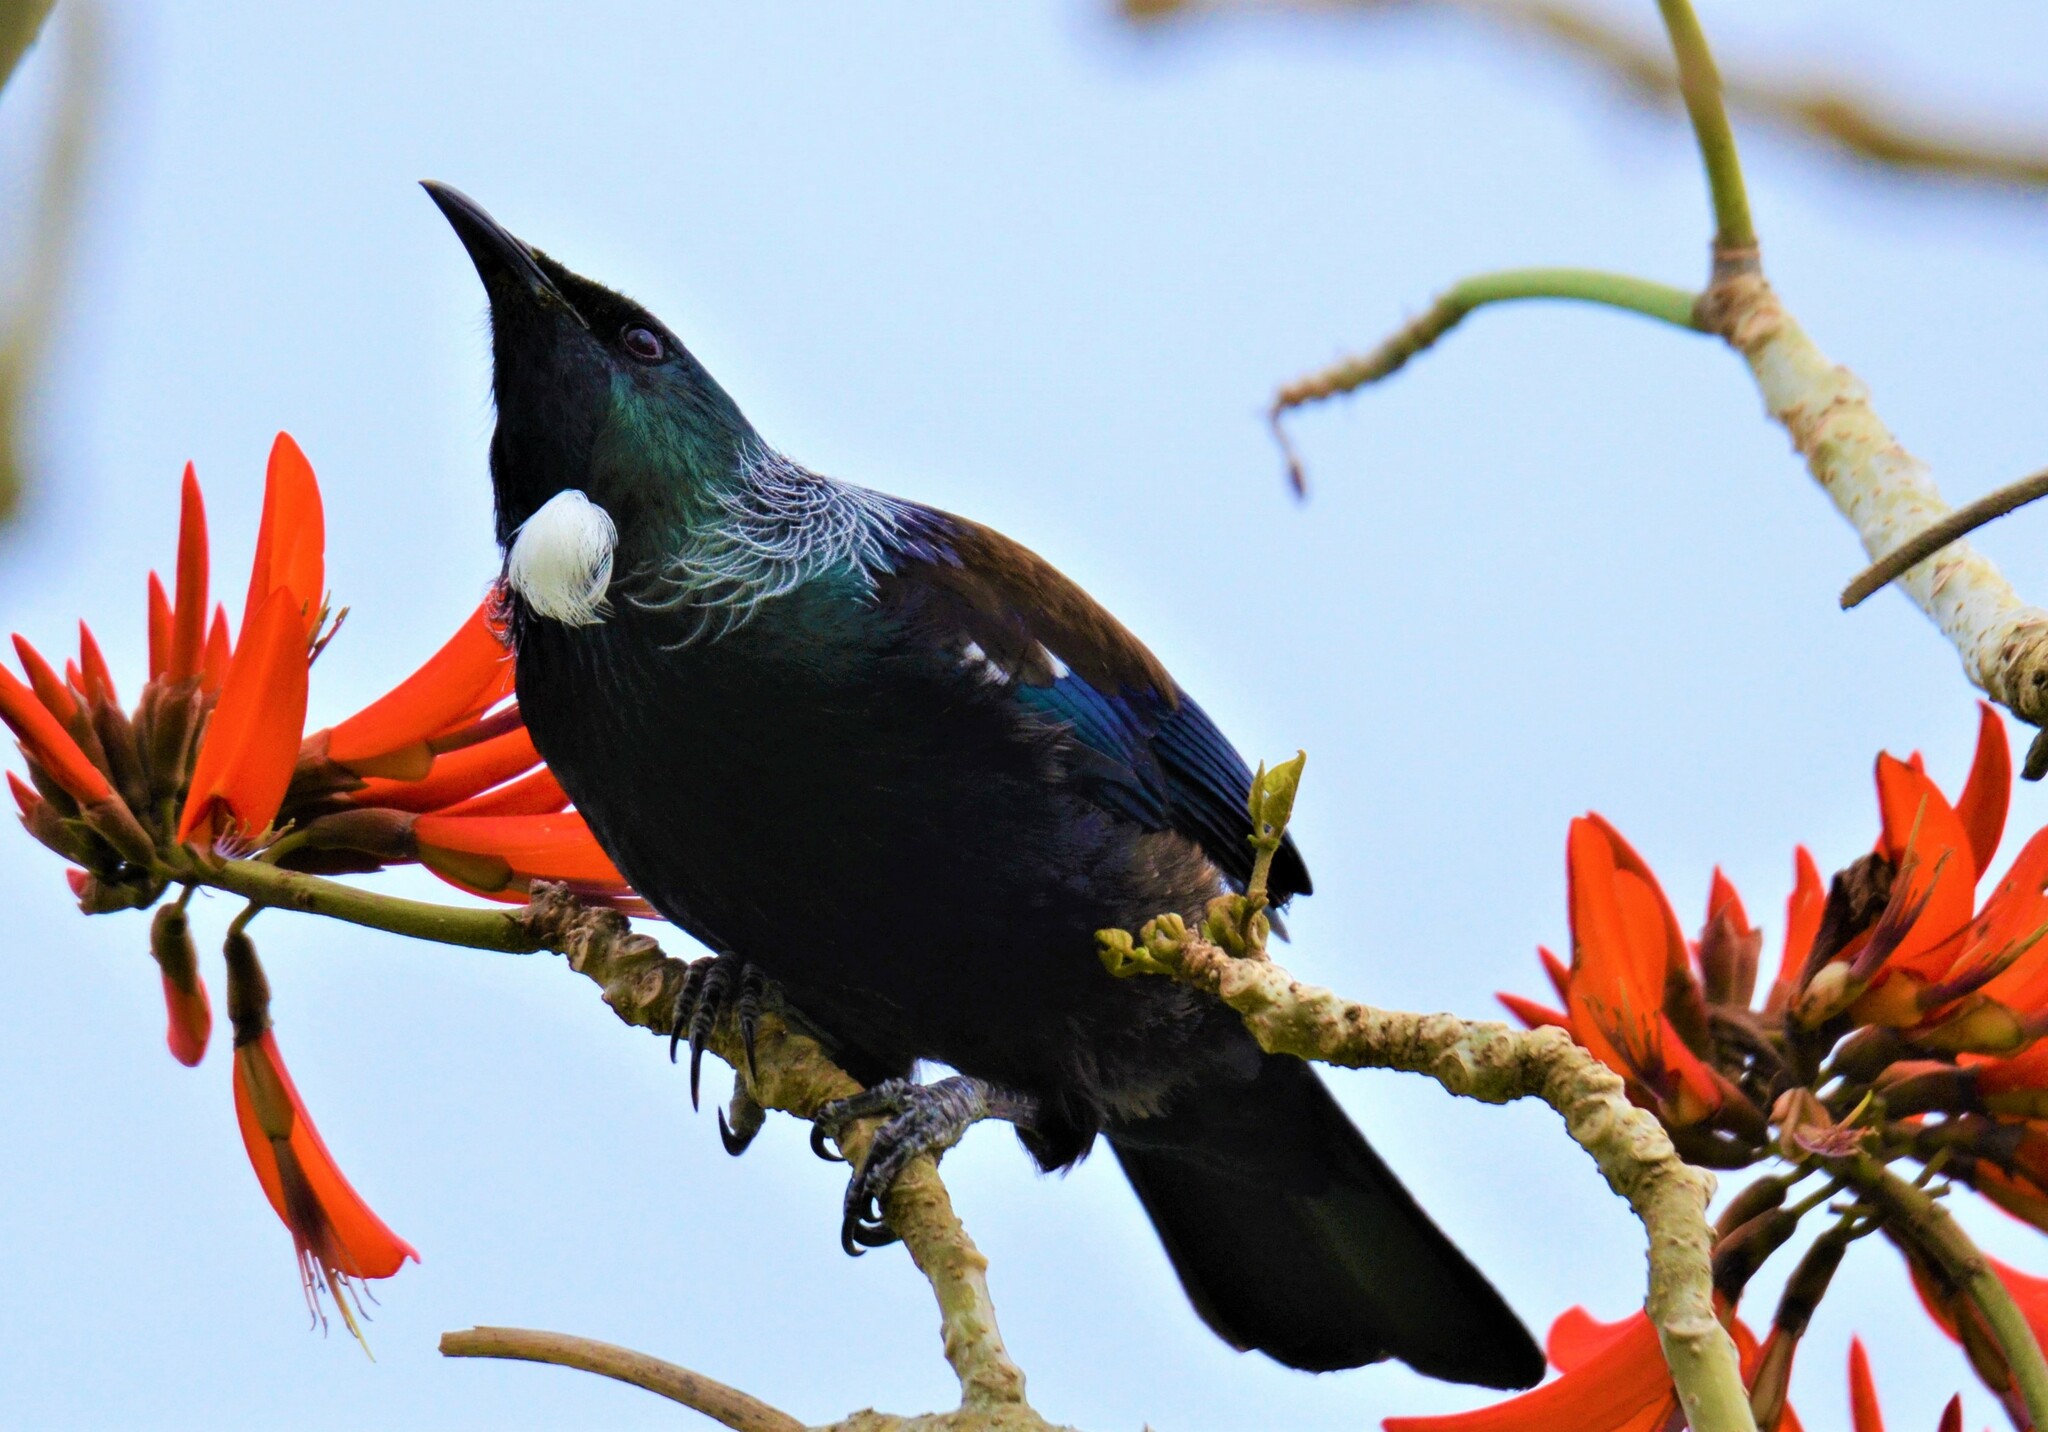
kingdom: Animalia
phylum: Chordata
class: Aves
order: Passeriformes
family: Meliphagidae
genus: Prosthemadera
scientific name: Prosthemadera novaeseelandiae
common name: Tui
